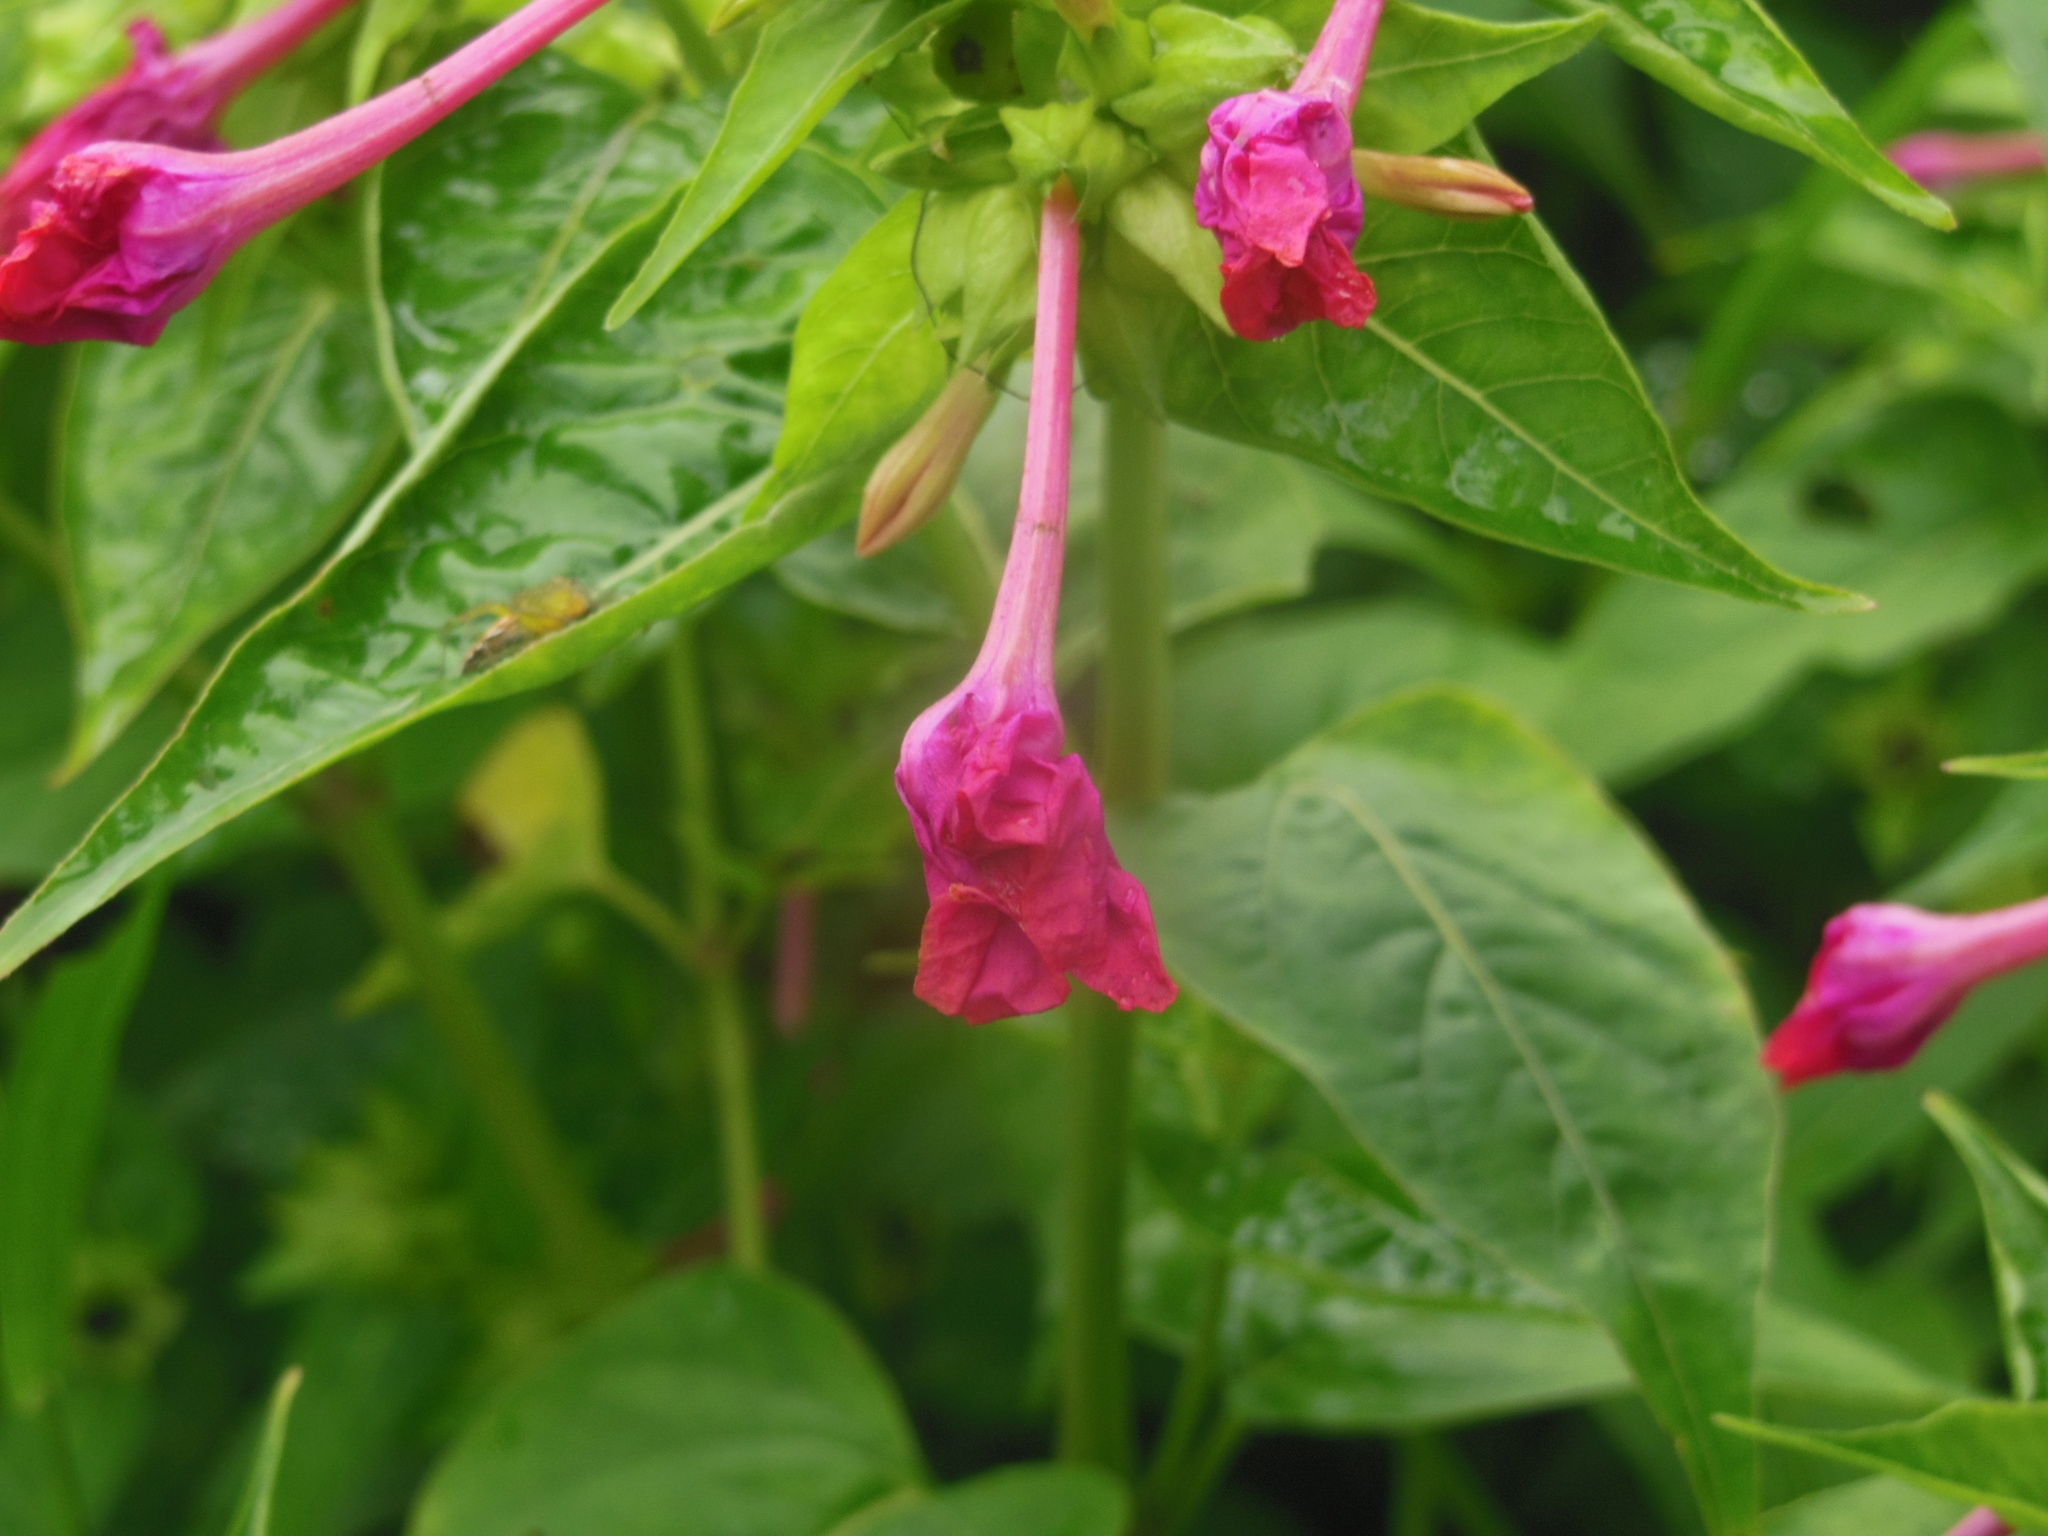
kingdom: Plantae
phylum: Tracheophyta
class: Magnoliopsida
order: Caryophyllales
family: Nyctaginaceae
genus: Mirabilis
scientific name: Mirabilis jalapa
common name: Marvel-of-peru
